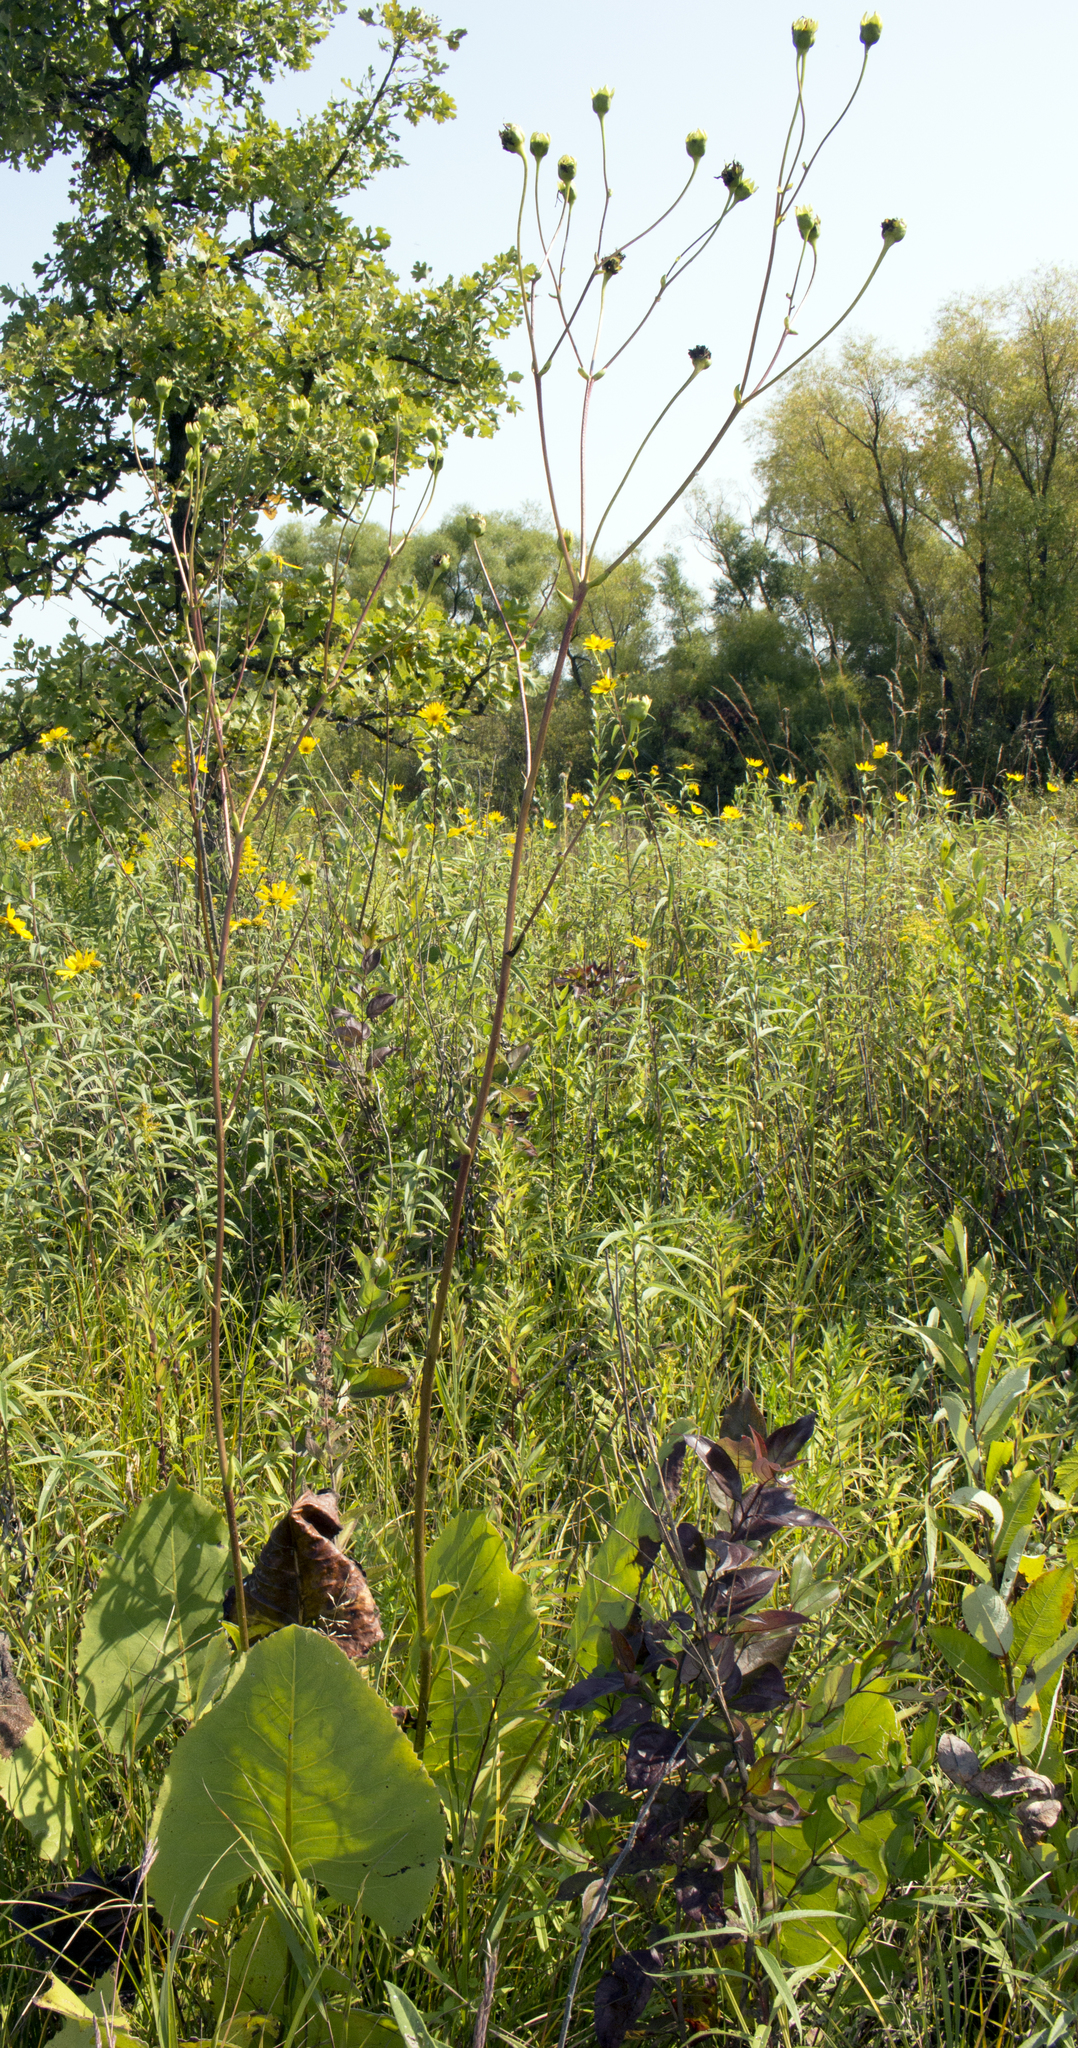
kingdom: Plantae
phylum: Tracheophyta
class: Magnoliopsida
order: Asterales
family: Asteraceae
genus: Silphium
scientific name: Silphium terebinthinaceum
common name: Basal-leaf rosinweed
